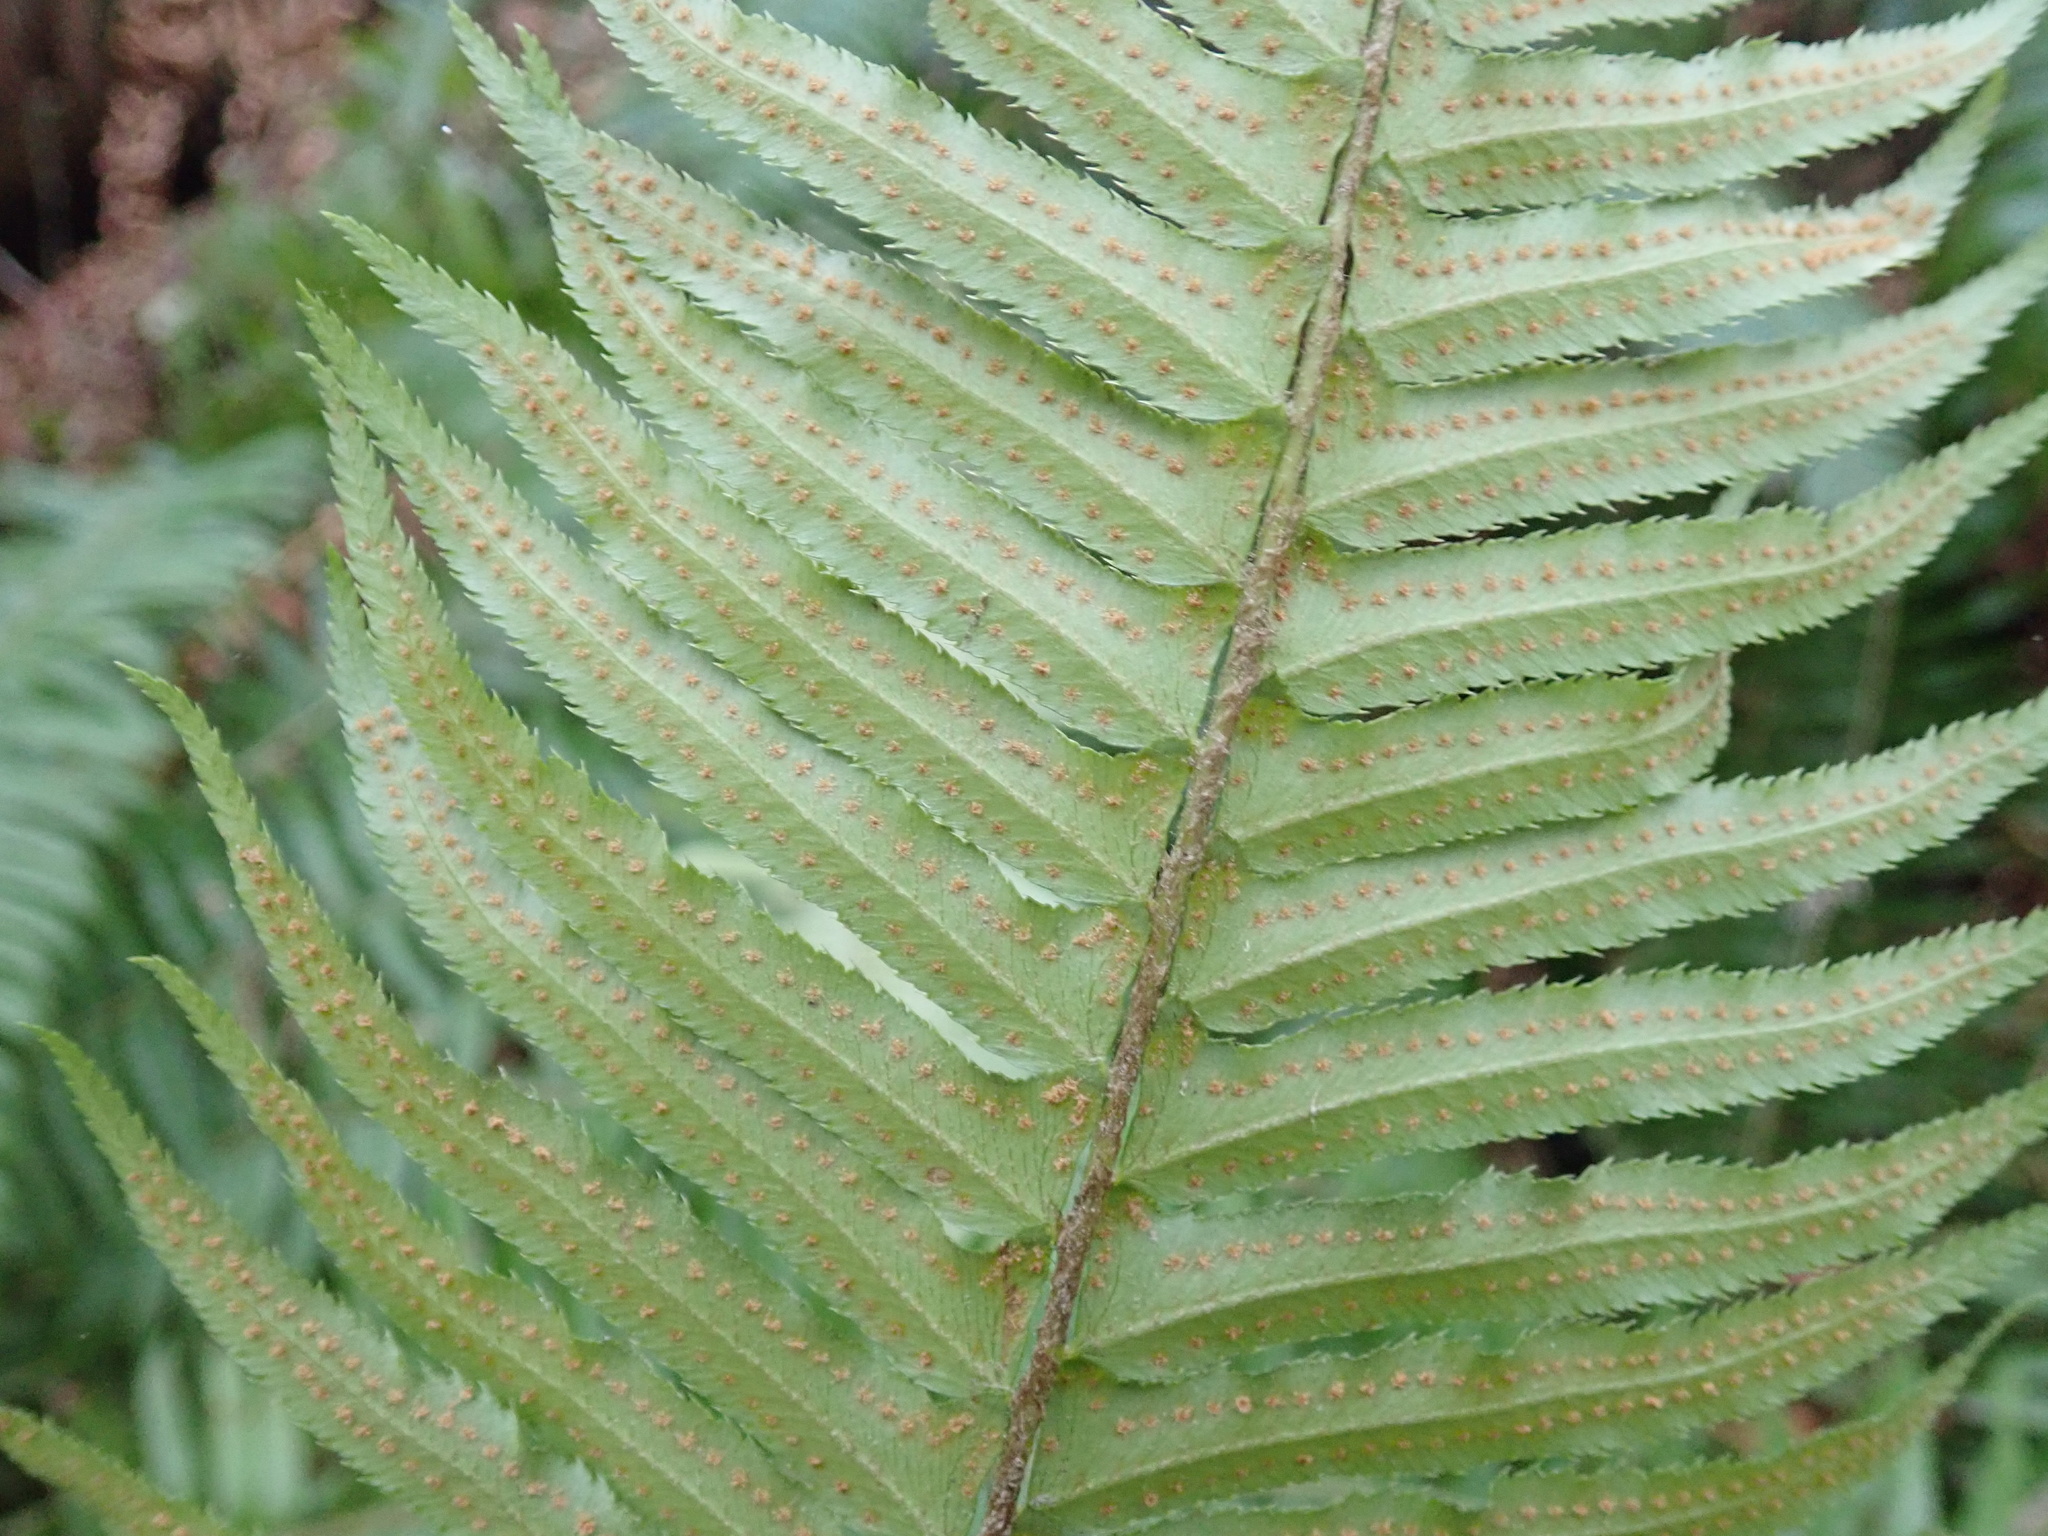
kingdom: Plantae
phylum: Tracheophyta
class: Polypodiopsida
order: Polypodiales
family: Dryopteridaceae
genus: Polystichum
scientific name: Polystichum munitum
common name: Western sword-fern
